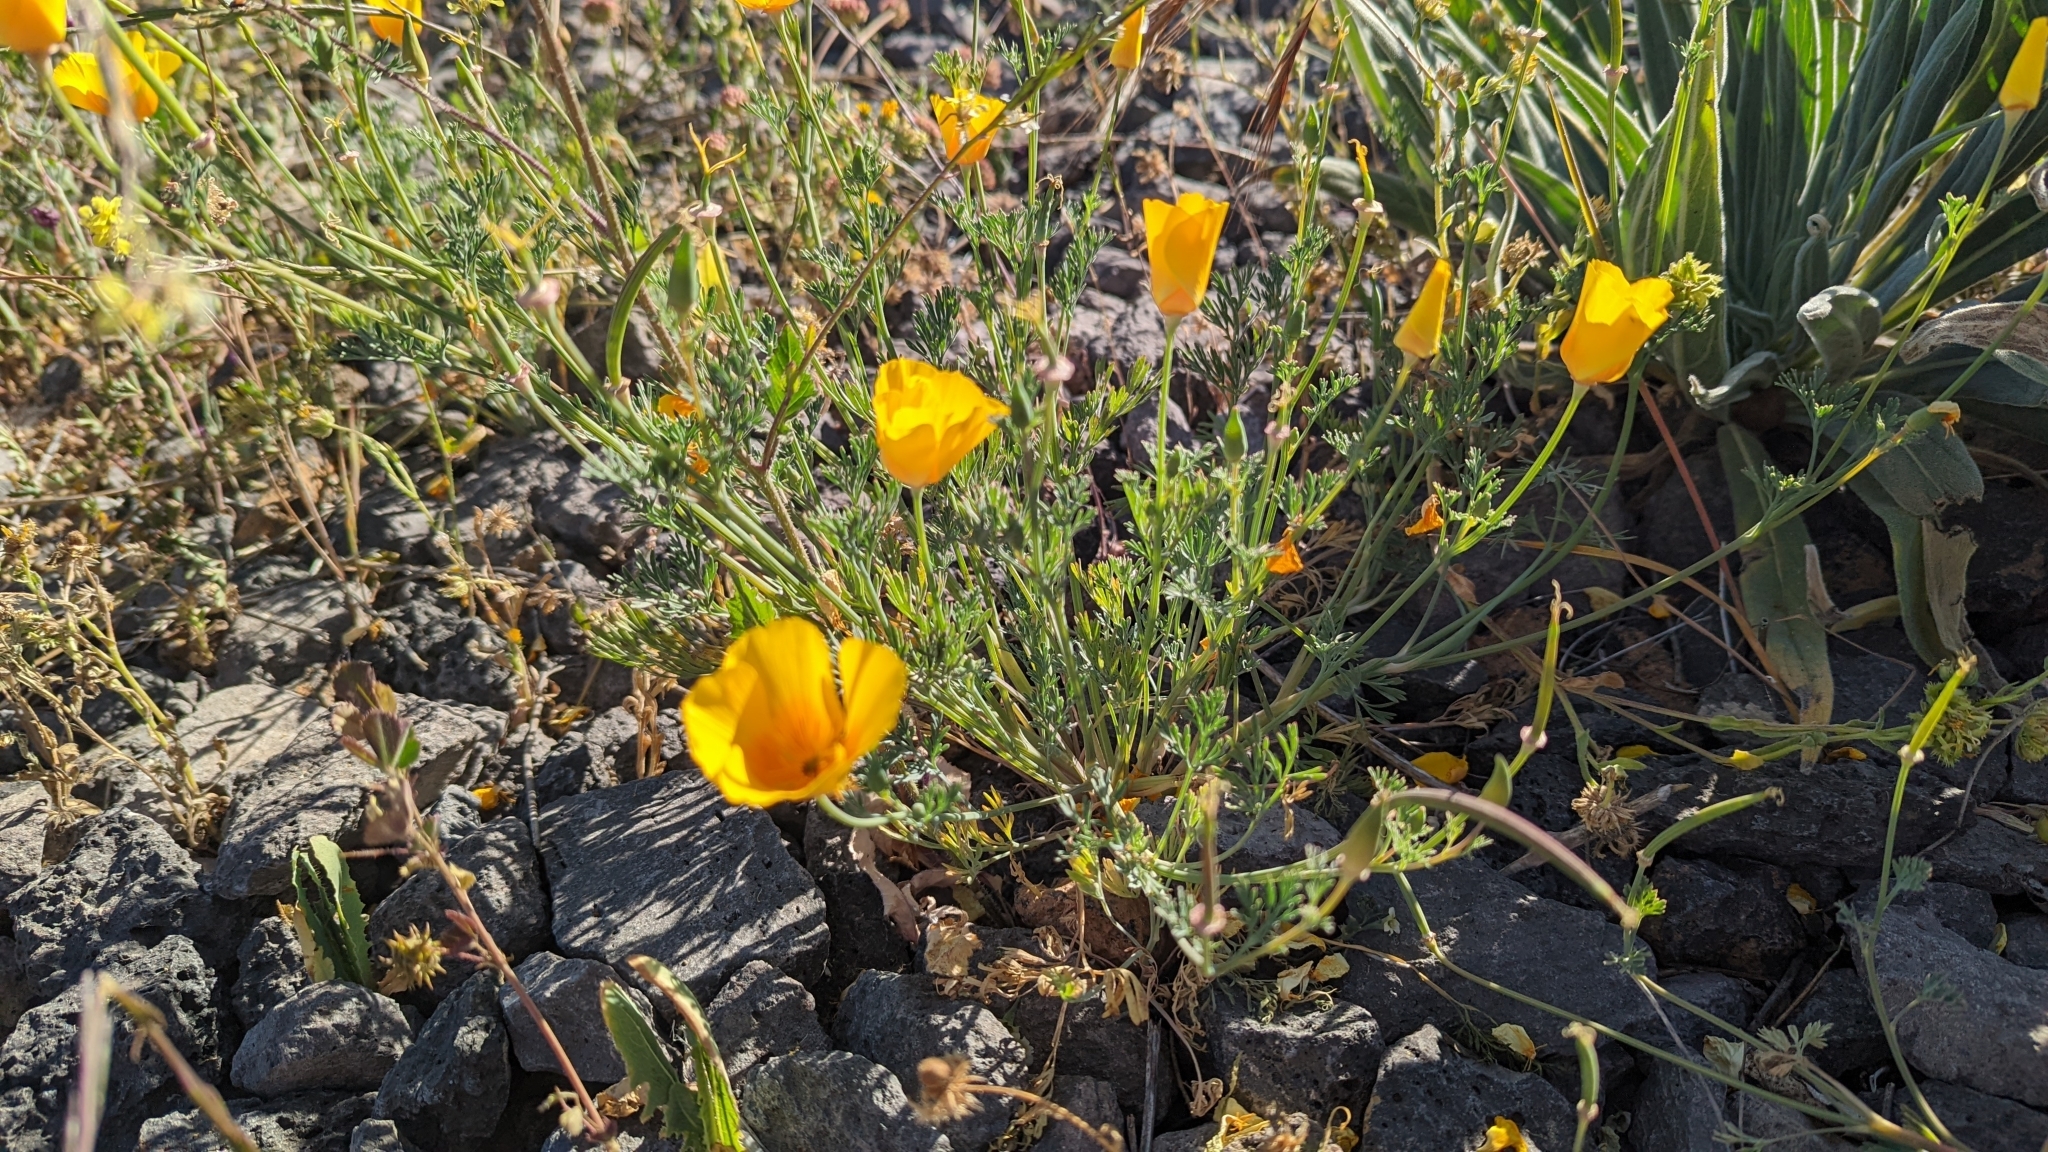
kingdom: Plantae
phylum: Tracheophyta
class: Magnoliopsida
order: Ranunculales
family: Papaveraceae
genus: Eschscholzia
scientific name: Eschscholzia californica
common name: California poppy
